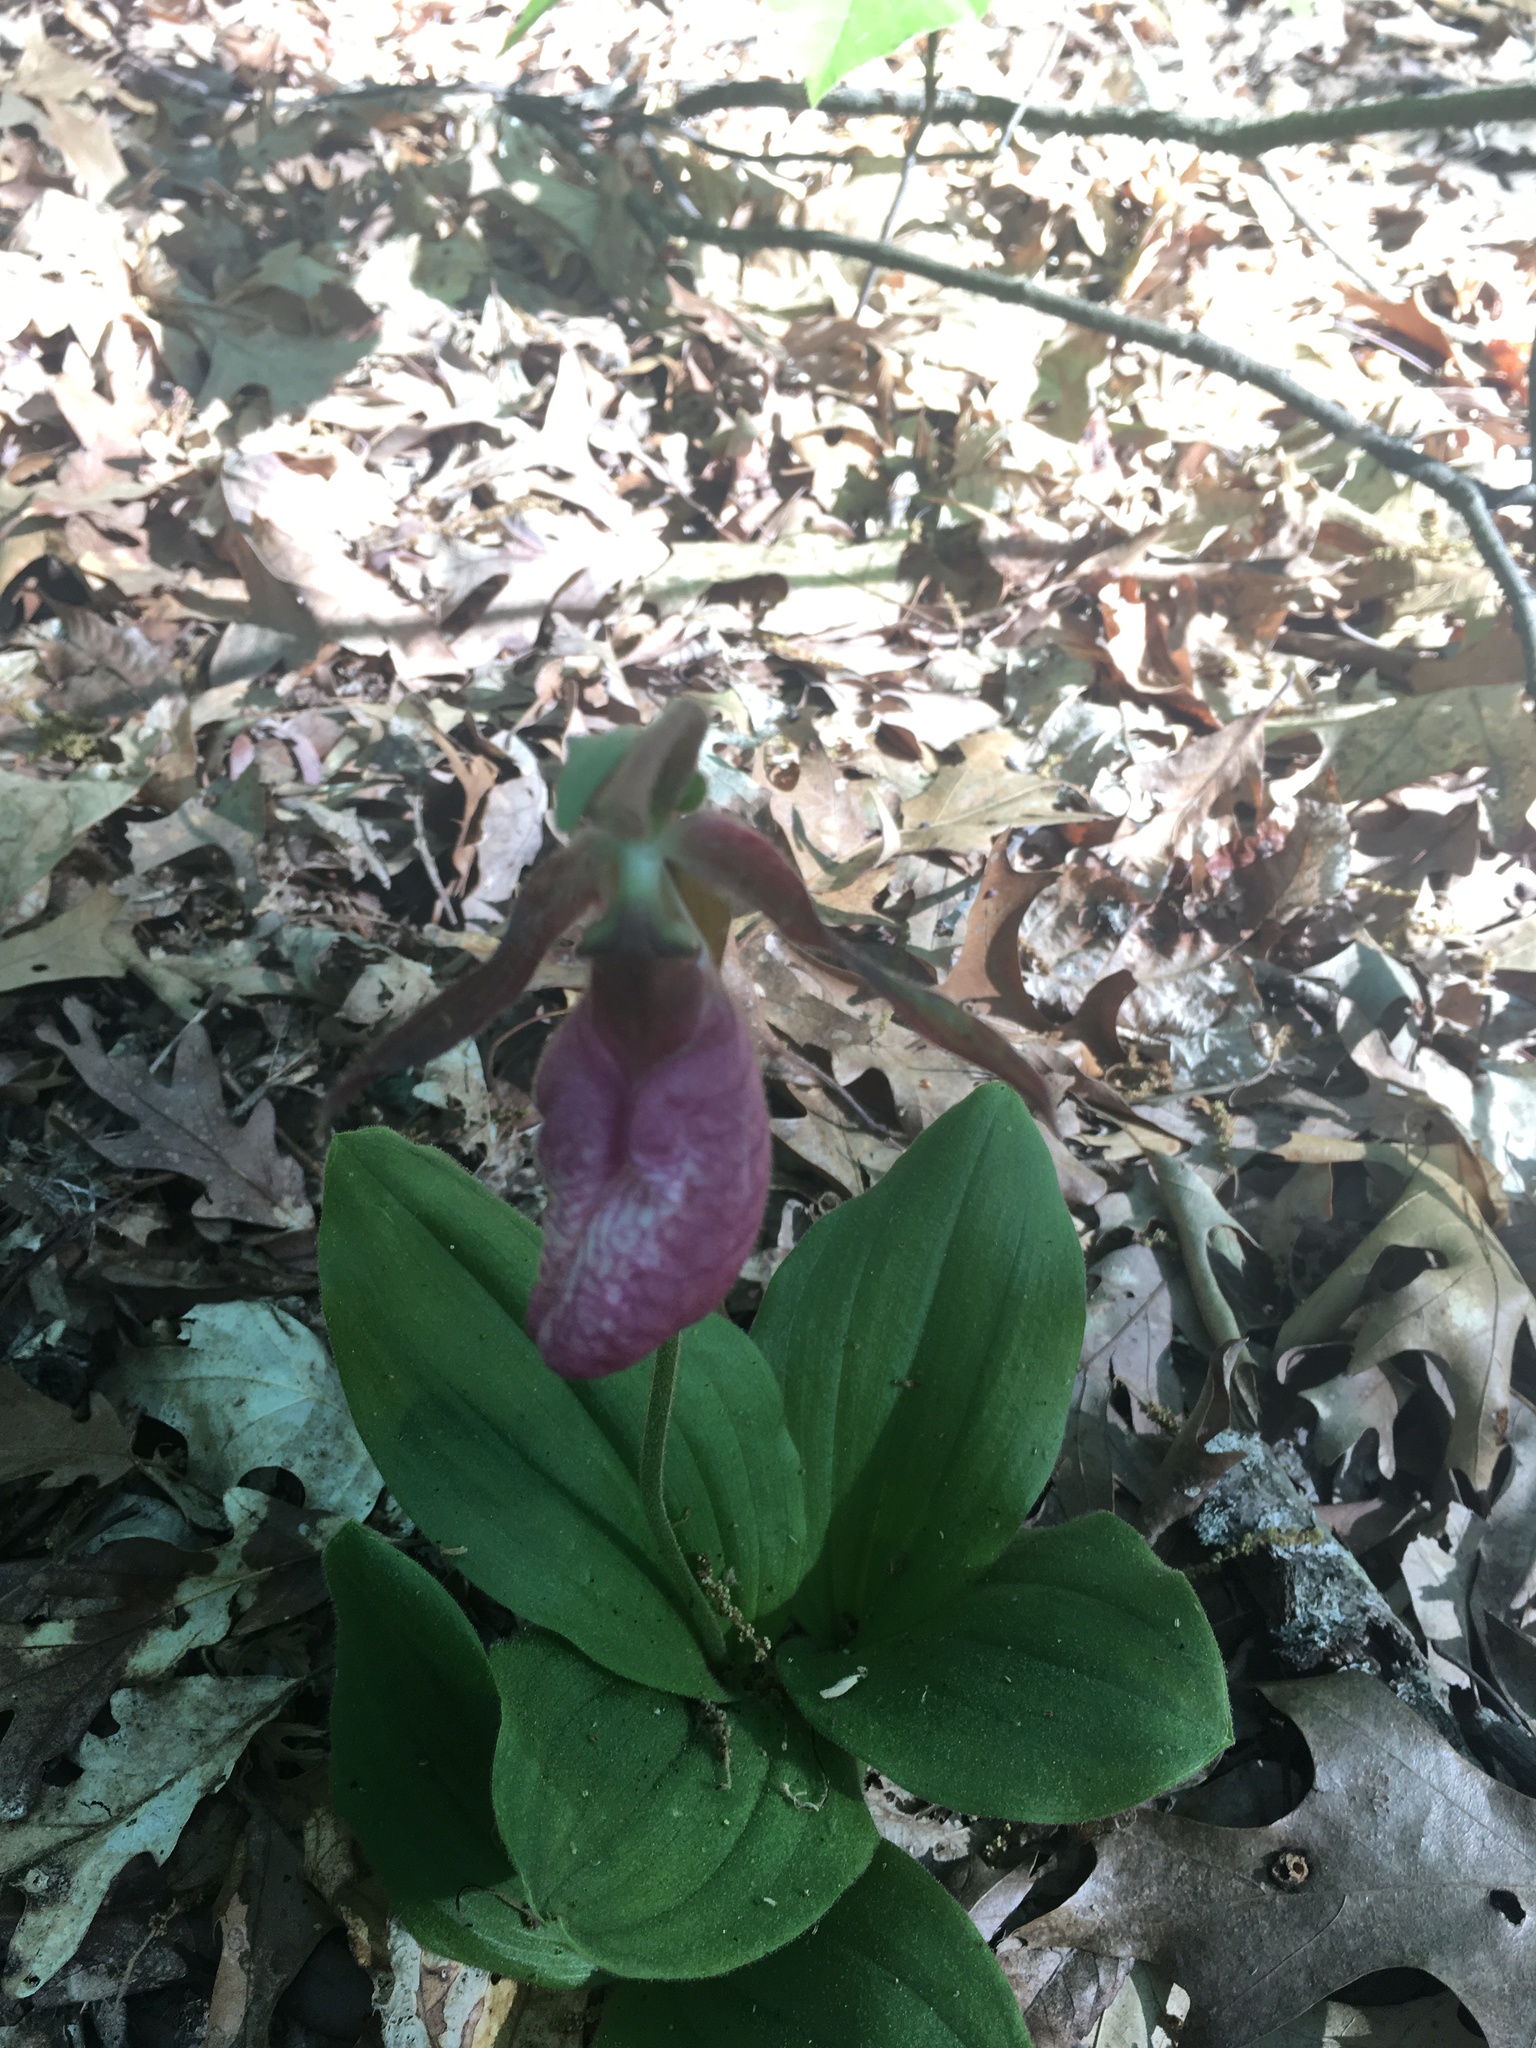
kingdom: Plantae
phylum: Tracheophyta
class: Liliopsida
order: Asparagales
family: Orchidaceae
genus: Cypripedium
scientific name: Cypripedium acaule
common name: Pink lady's-slipper
